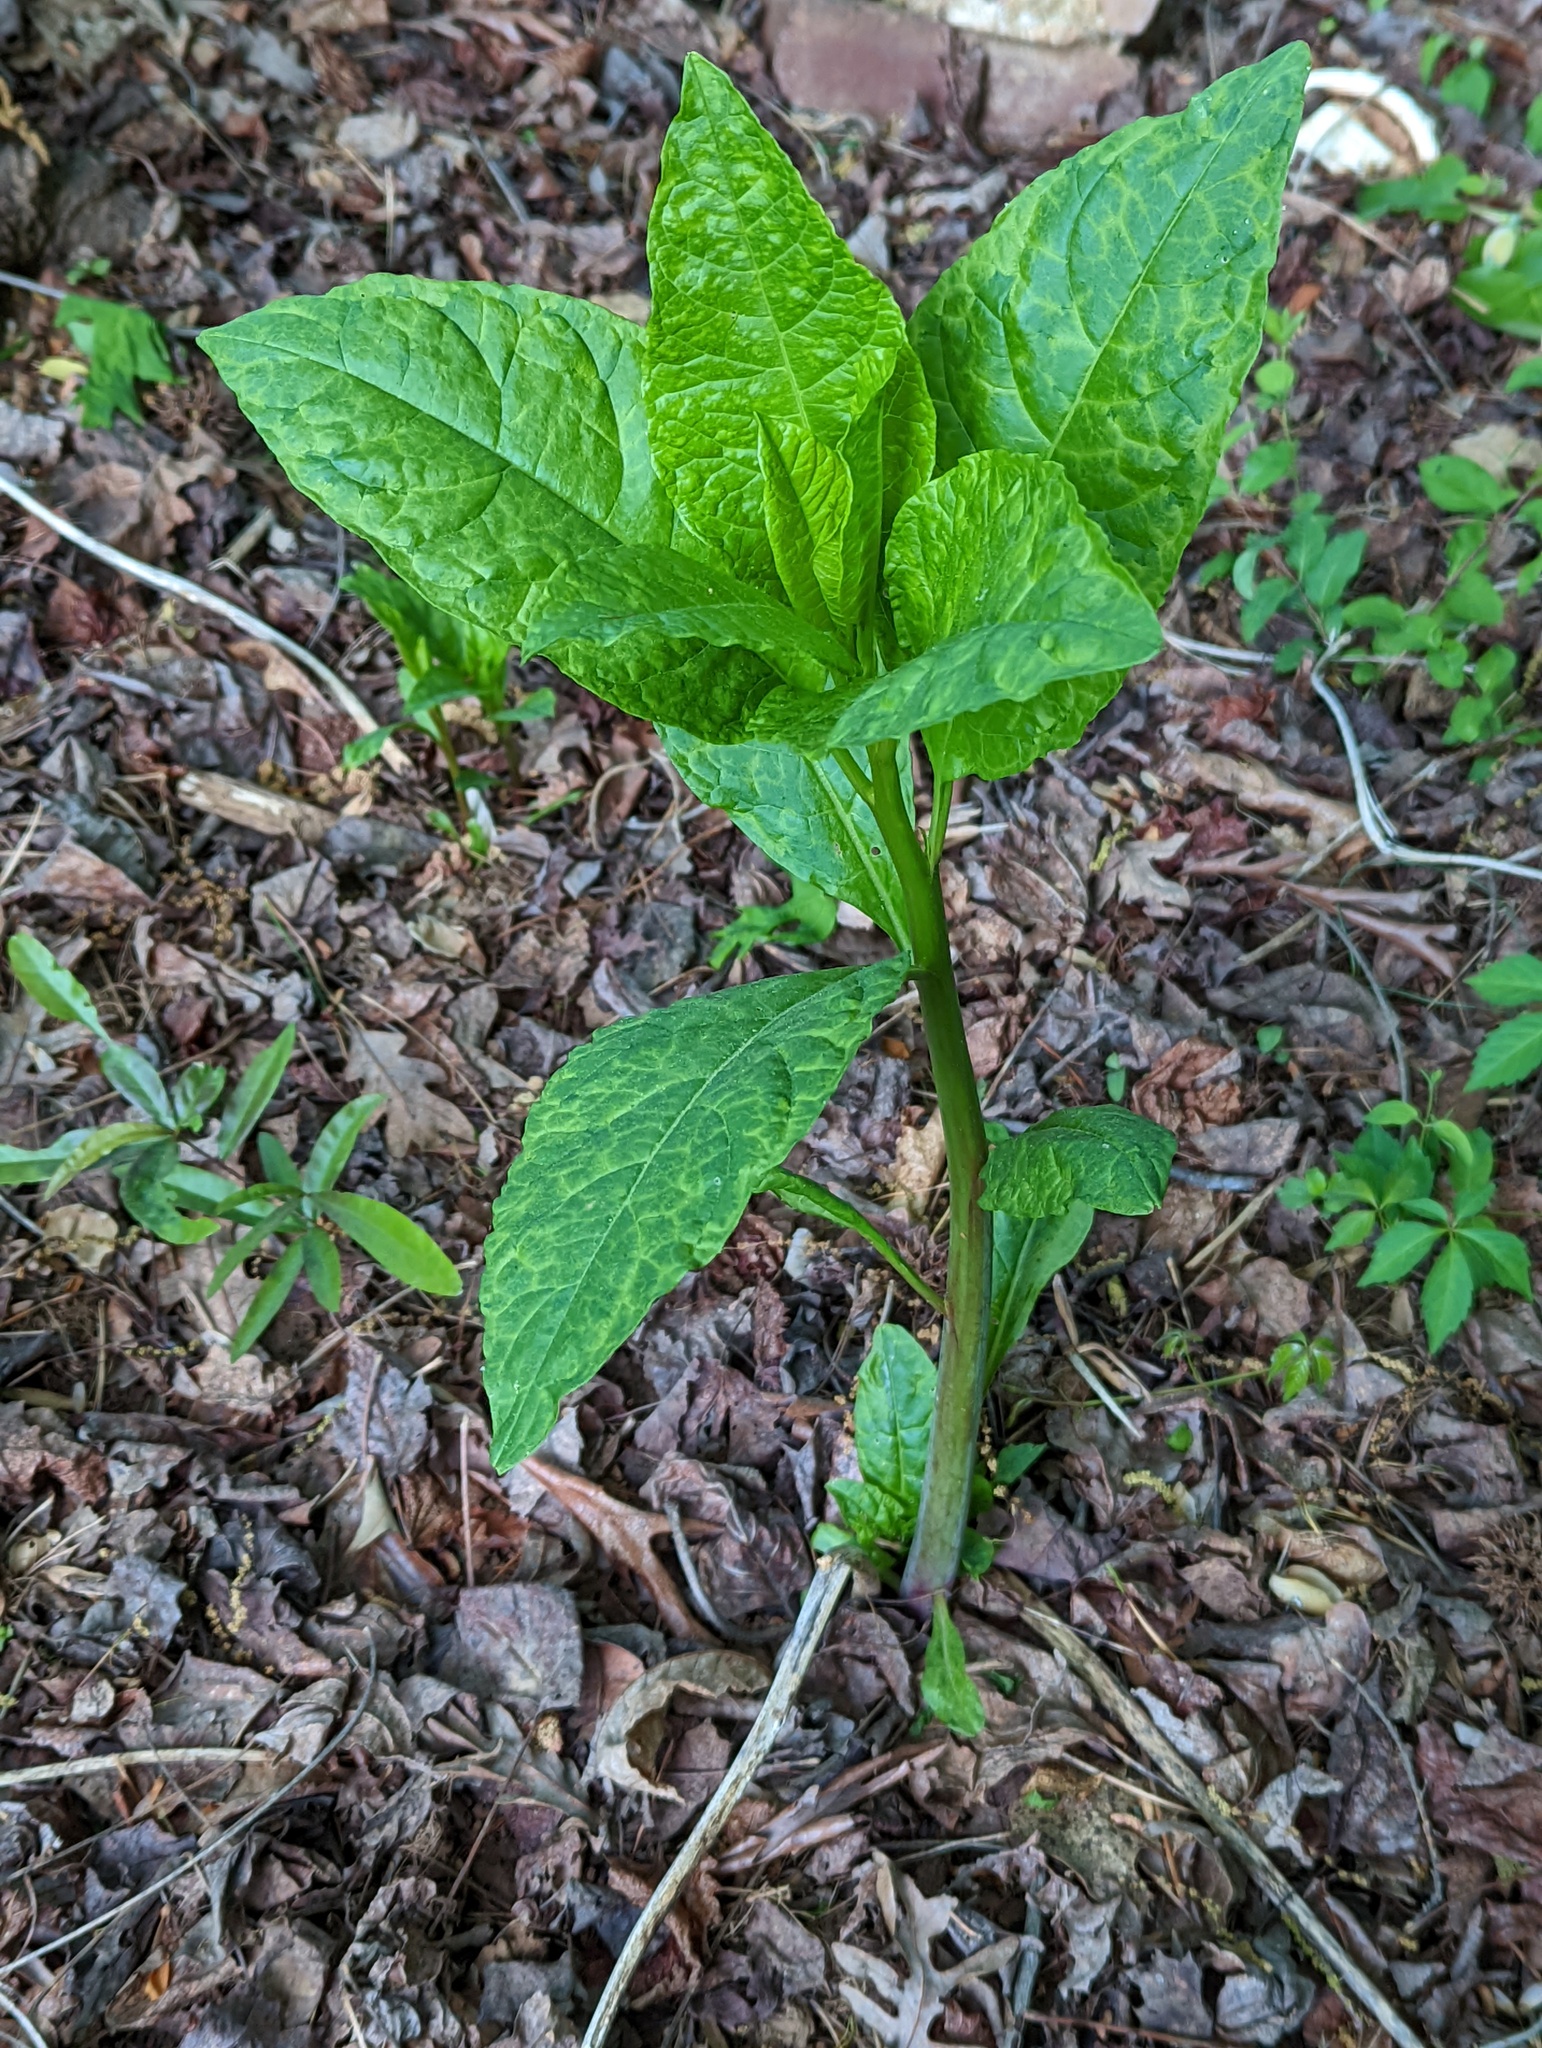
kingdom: Plantae
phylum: Tracheophyta
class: Magnoliopsida
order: Caryophyllales
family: Phytolaccaceae
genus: Phytolacca
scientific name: Phytolacca americana
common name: American pokeweed
